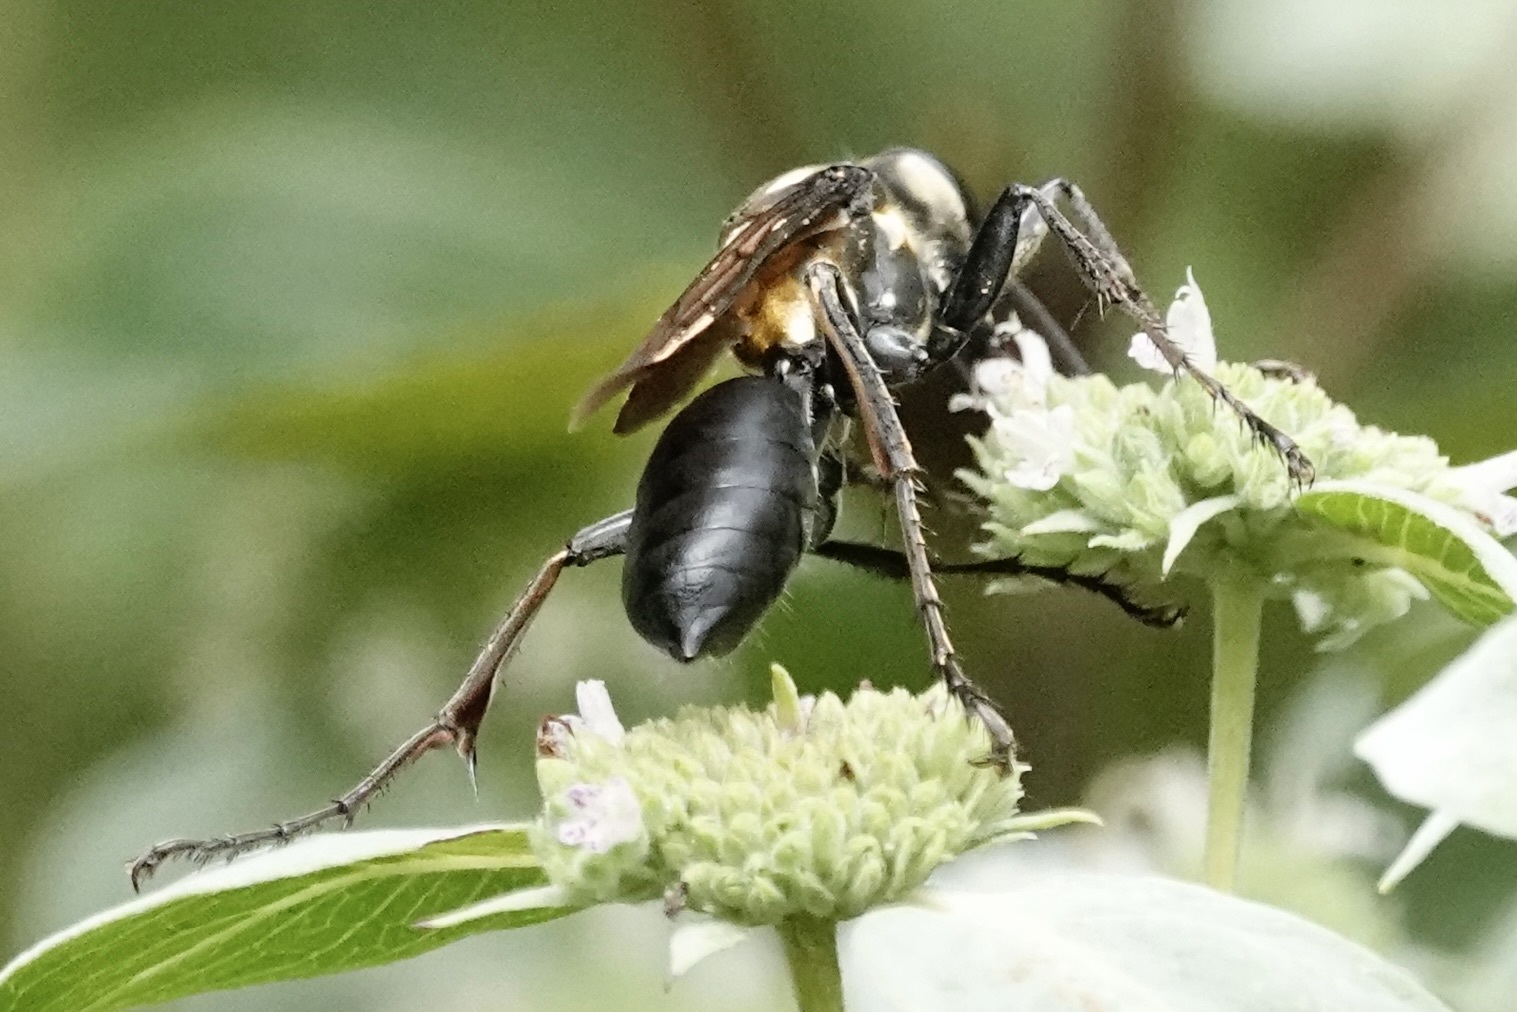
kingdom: Animalia
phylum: Arthropoda
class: Insecta
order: Hymenoptera
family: Sphecidae
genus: Sphex
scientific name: Sphex habenus
